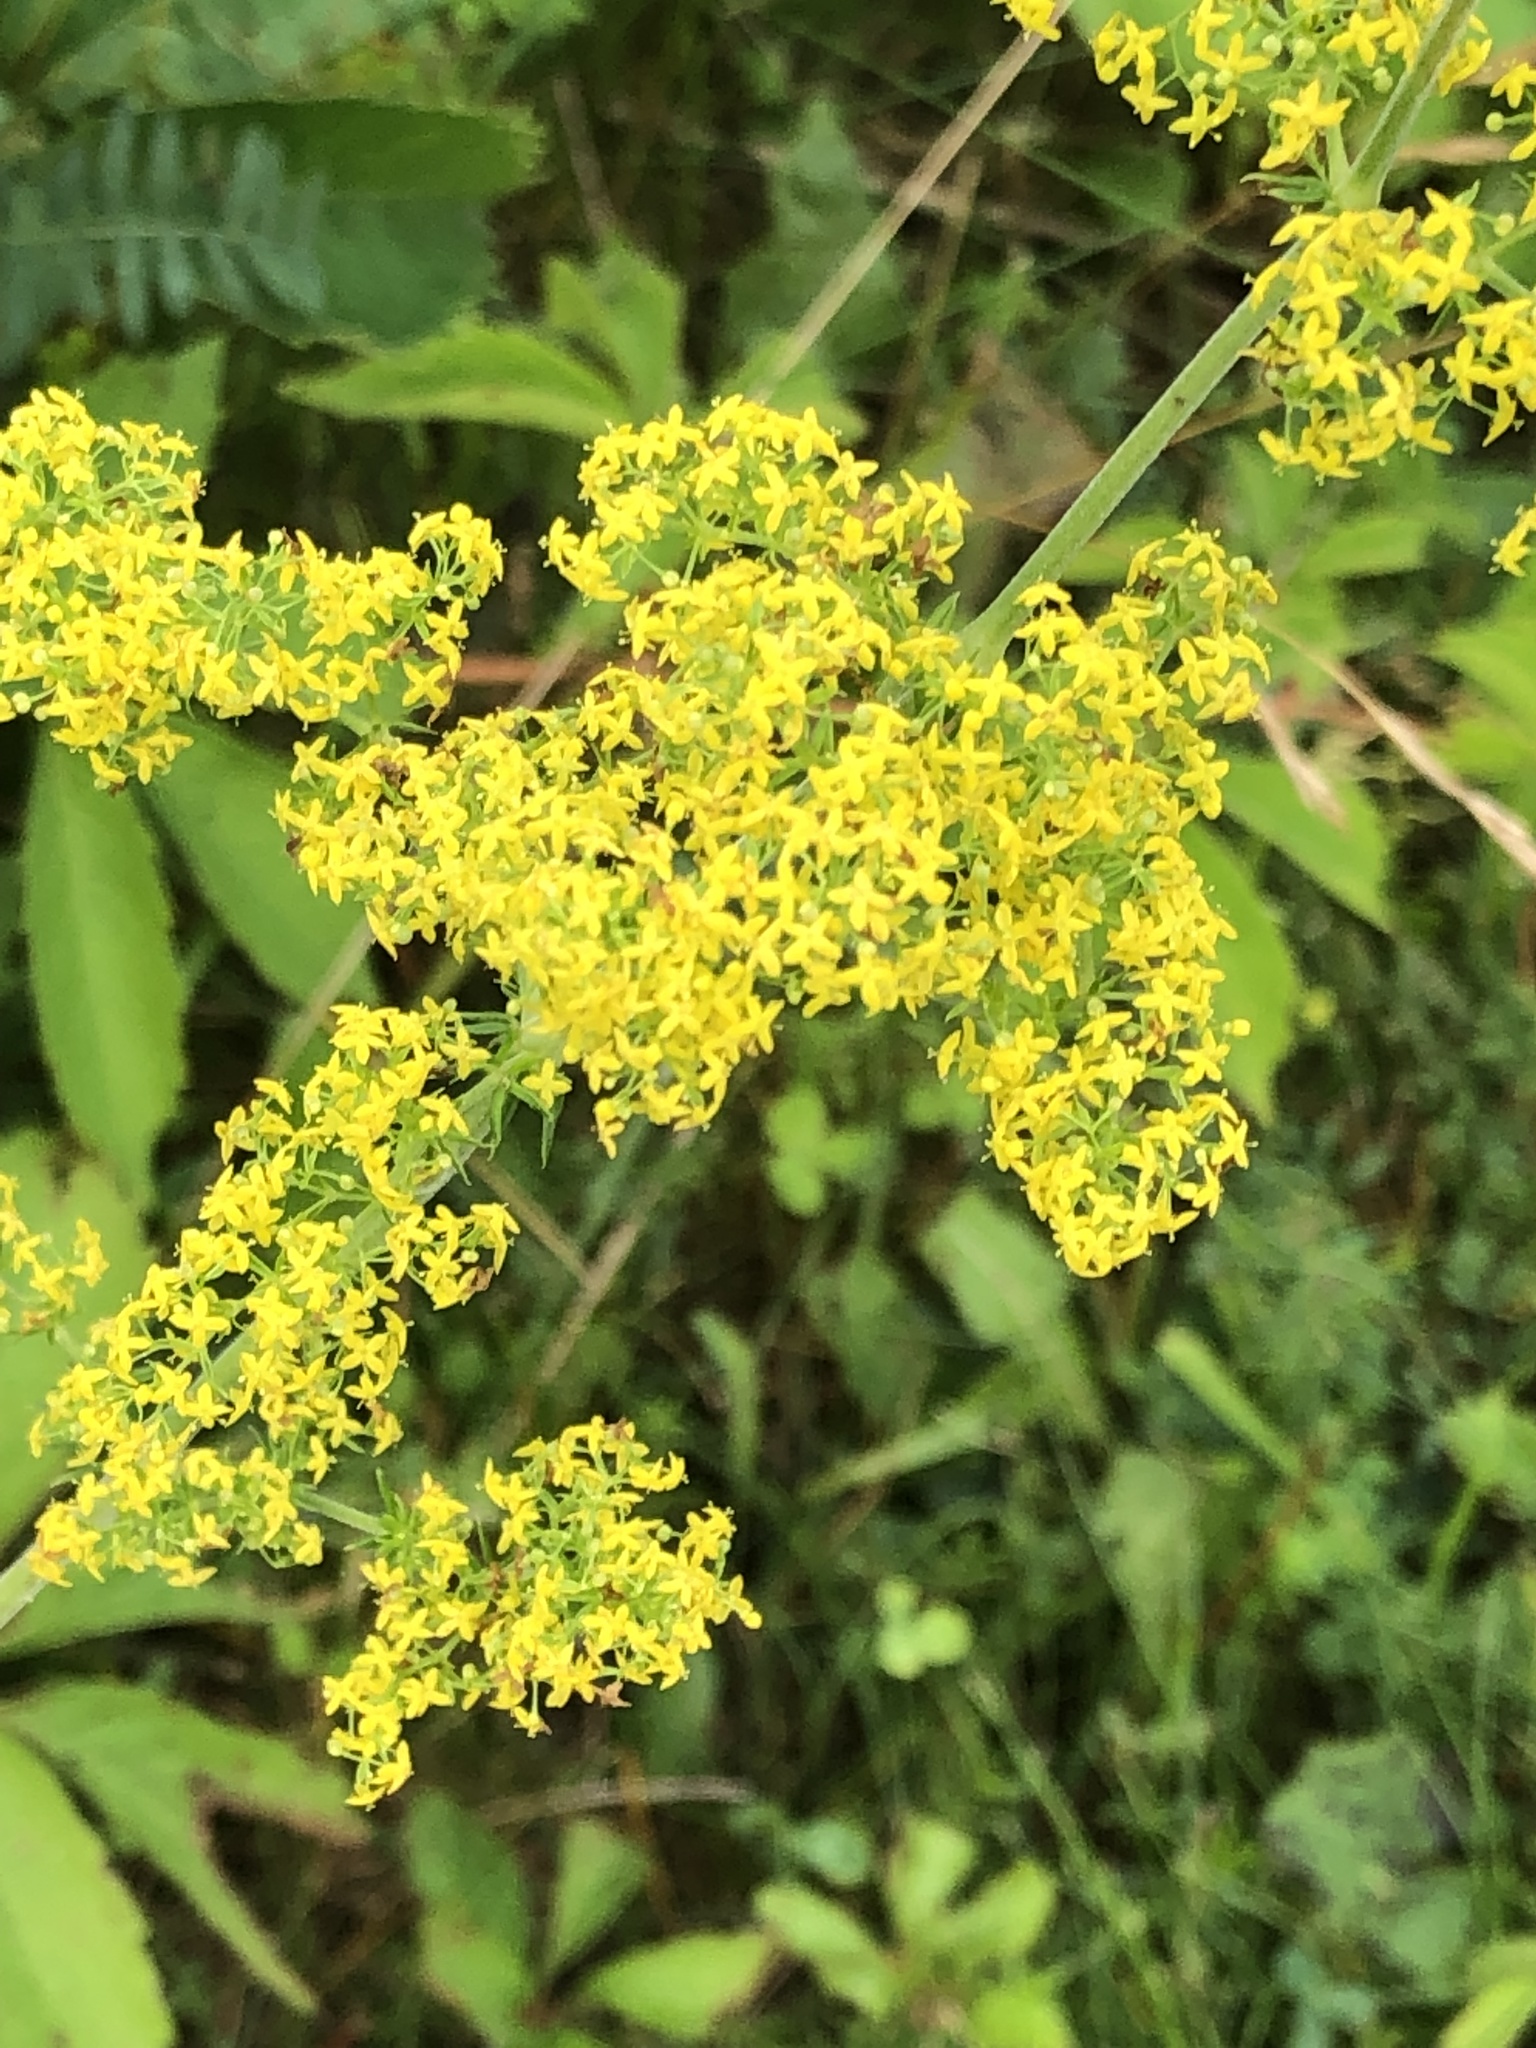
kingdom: Plantae
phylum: Tracheophyta
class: Magnoliopsida
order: Gentianales
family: Rubiaceae
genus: Galium
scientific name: Galium verum
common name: Lady's bedstraw
